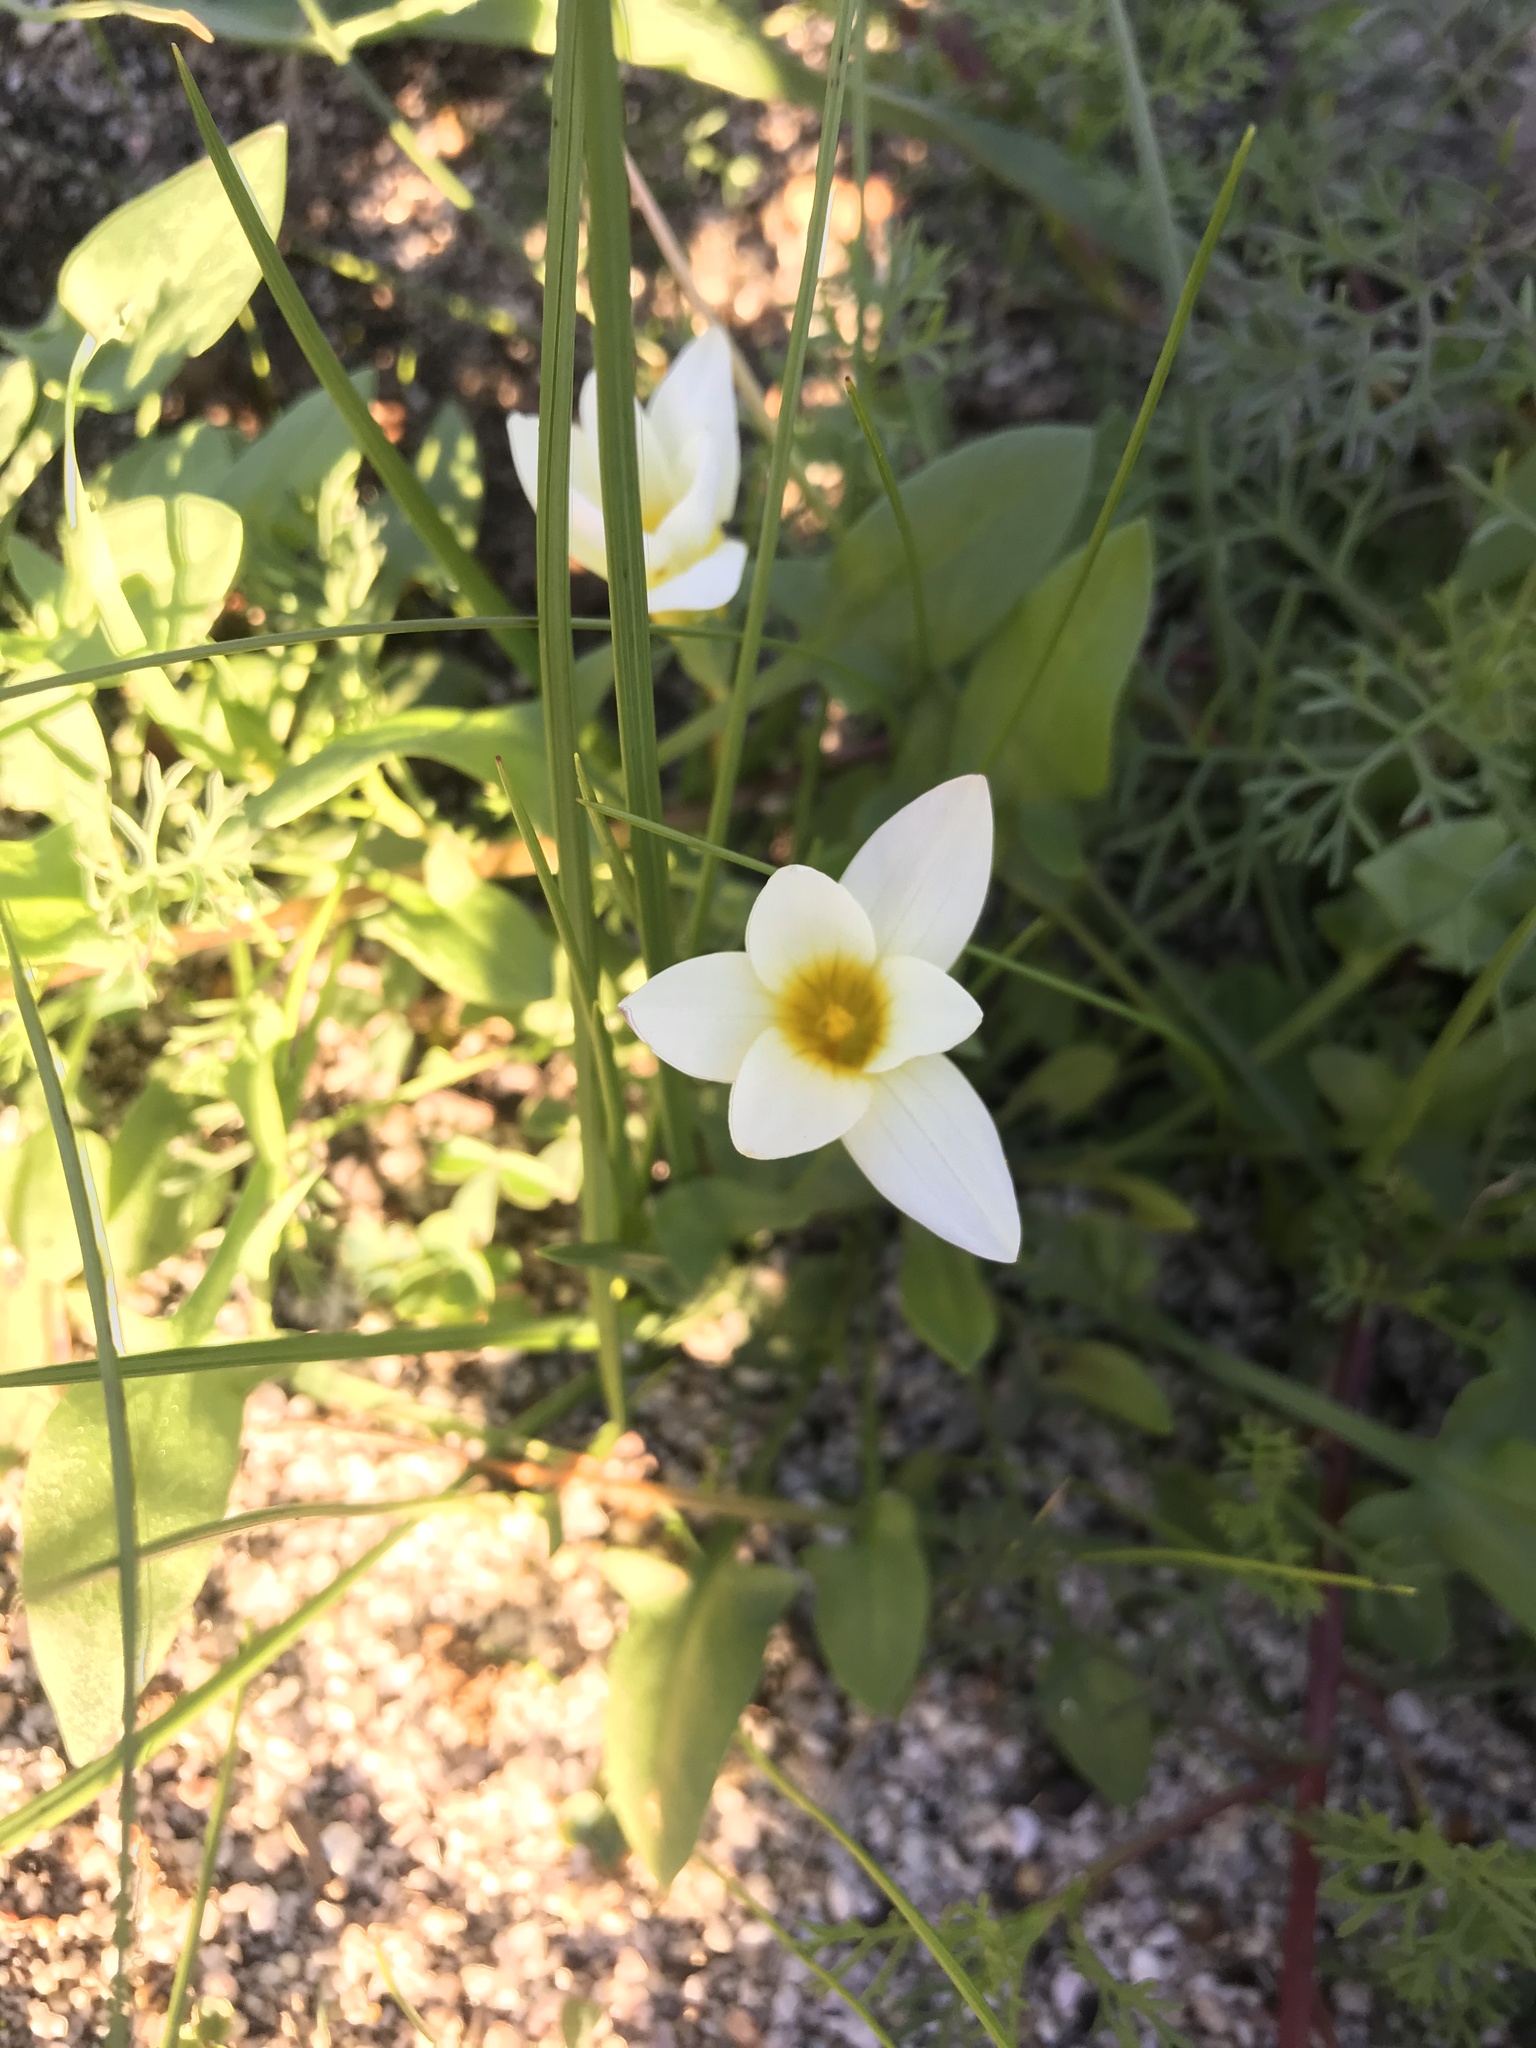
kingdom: Plantae
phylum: Tracheophyta
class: Liliopsida
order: Asparagales
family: Iridaceae
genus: Romulea
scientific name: Romulea flava
